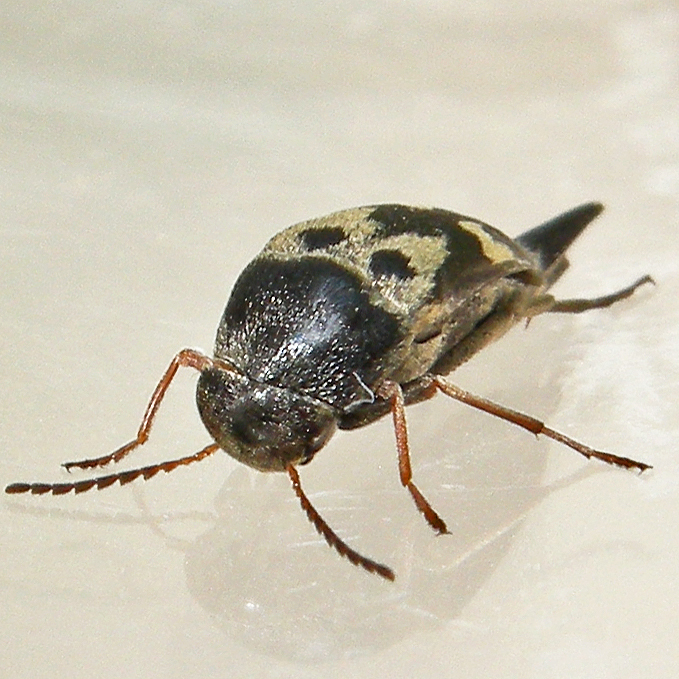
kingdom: Animalia
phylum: Arthropoda
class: Insecta
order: Coleoptera
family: Mordellidae
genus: Glipa
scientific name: Glipa oculata
